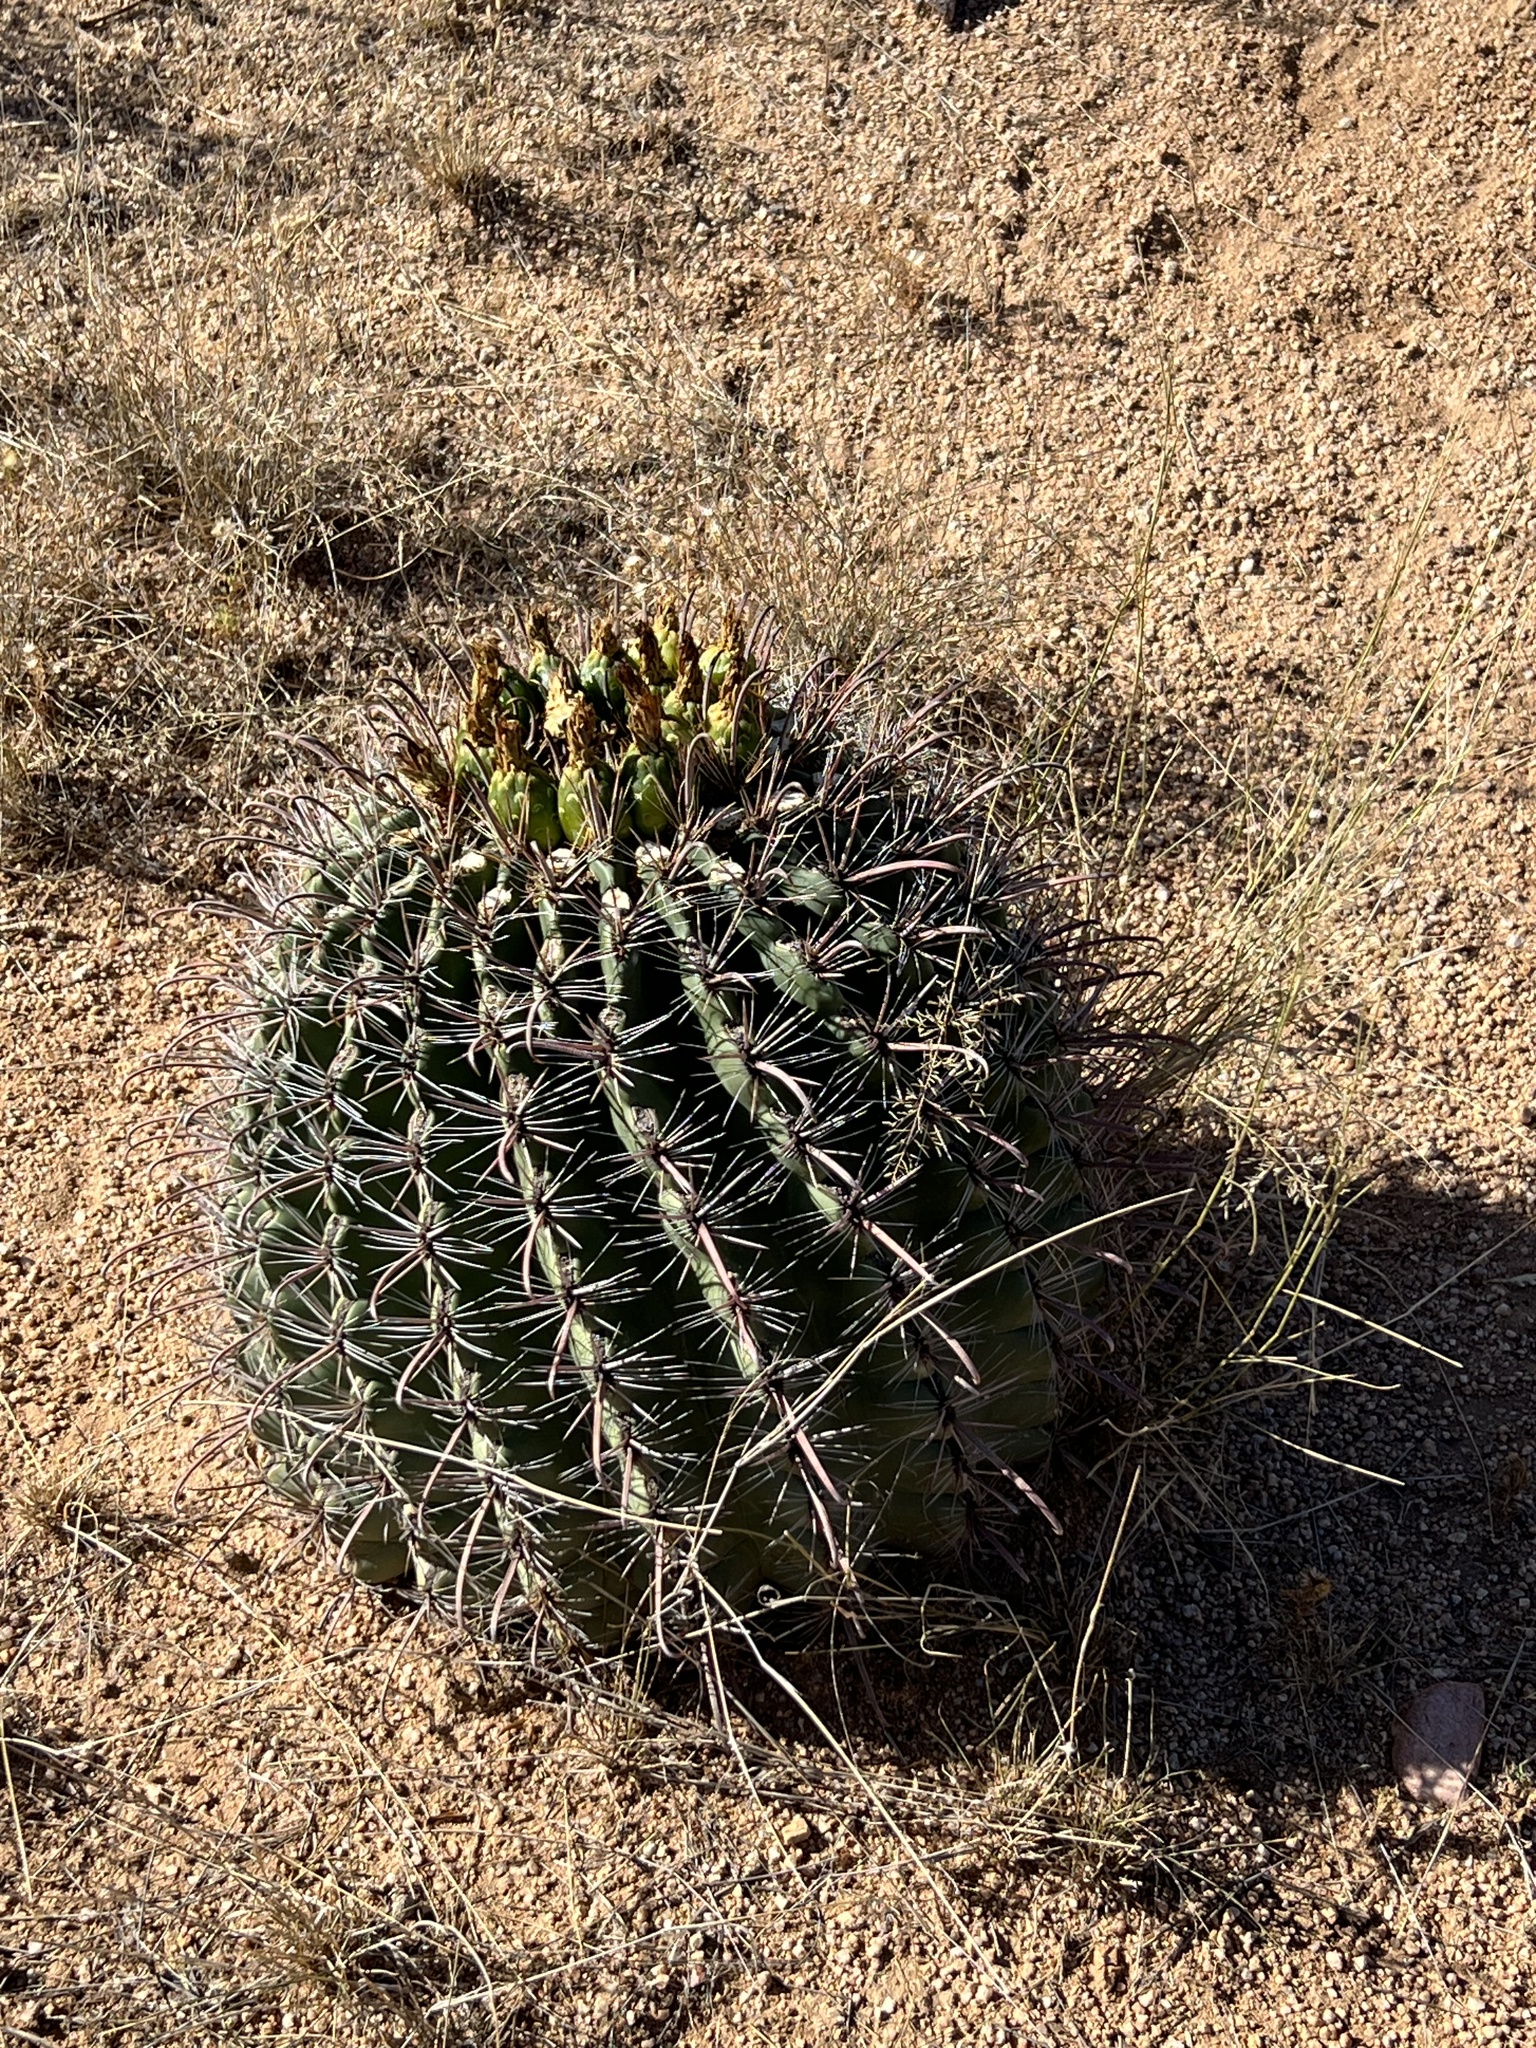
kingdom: Plantae
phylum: Tracheophyta
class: Magnoliopsida
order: Caryophyllales
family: Cactaceae
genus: Ferocactus
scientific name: Ferocactus wislizeni
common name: Candy barrel cactus
